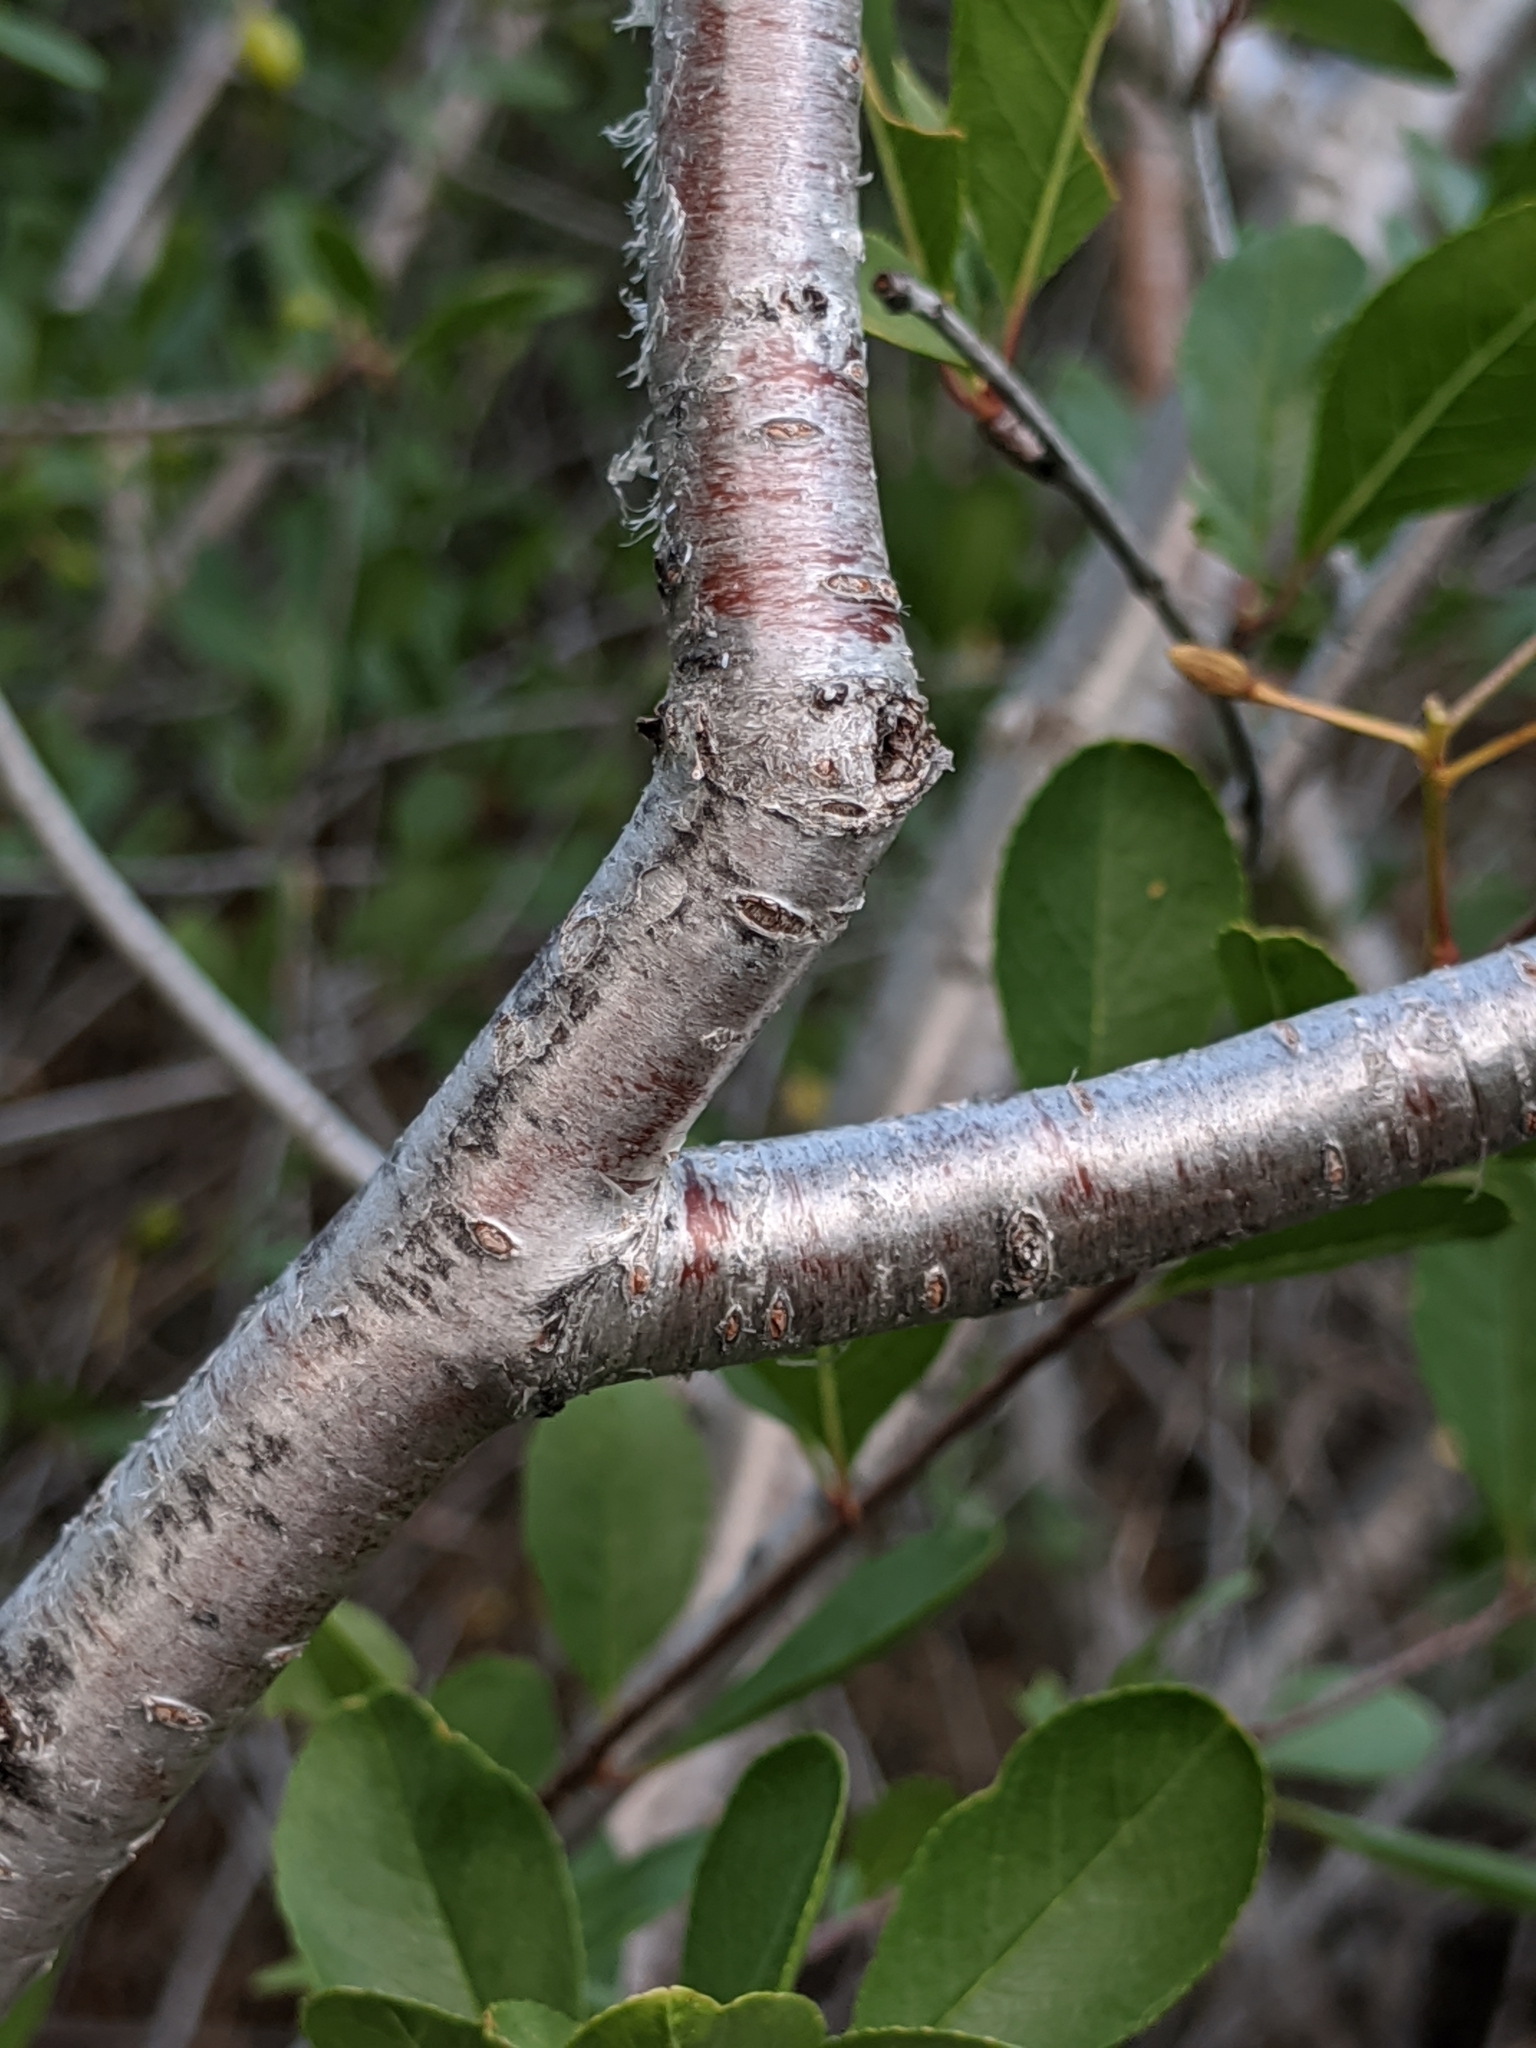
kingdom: Plantae
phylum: Tracheophyta
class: Magnoliopsida
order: Rosales
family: Rosaceae
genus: Prunus
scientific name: Prunus emarginata
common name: Bitter cherry
